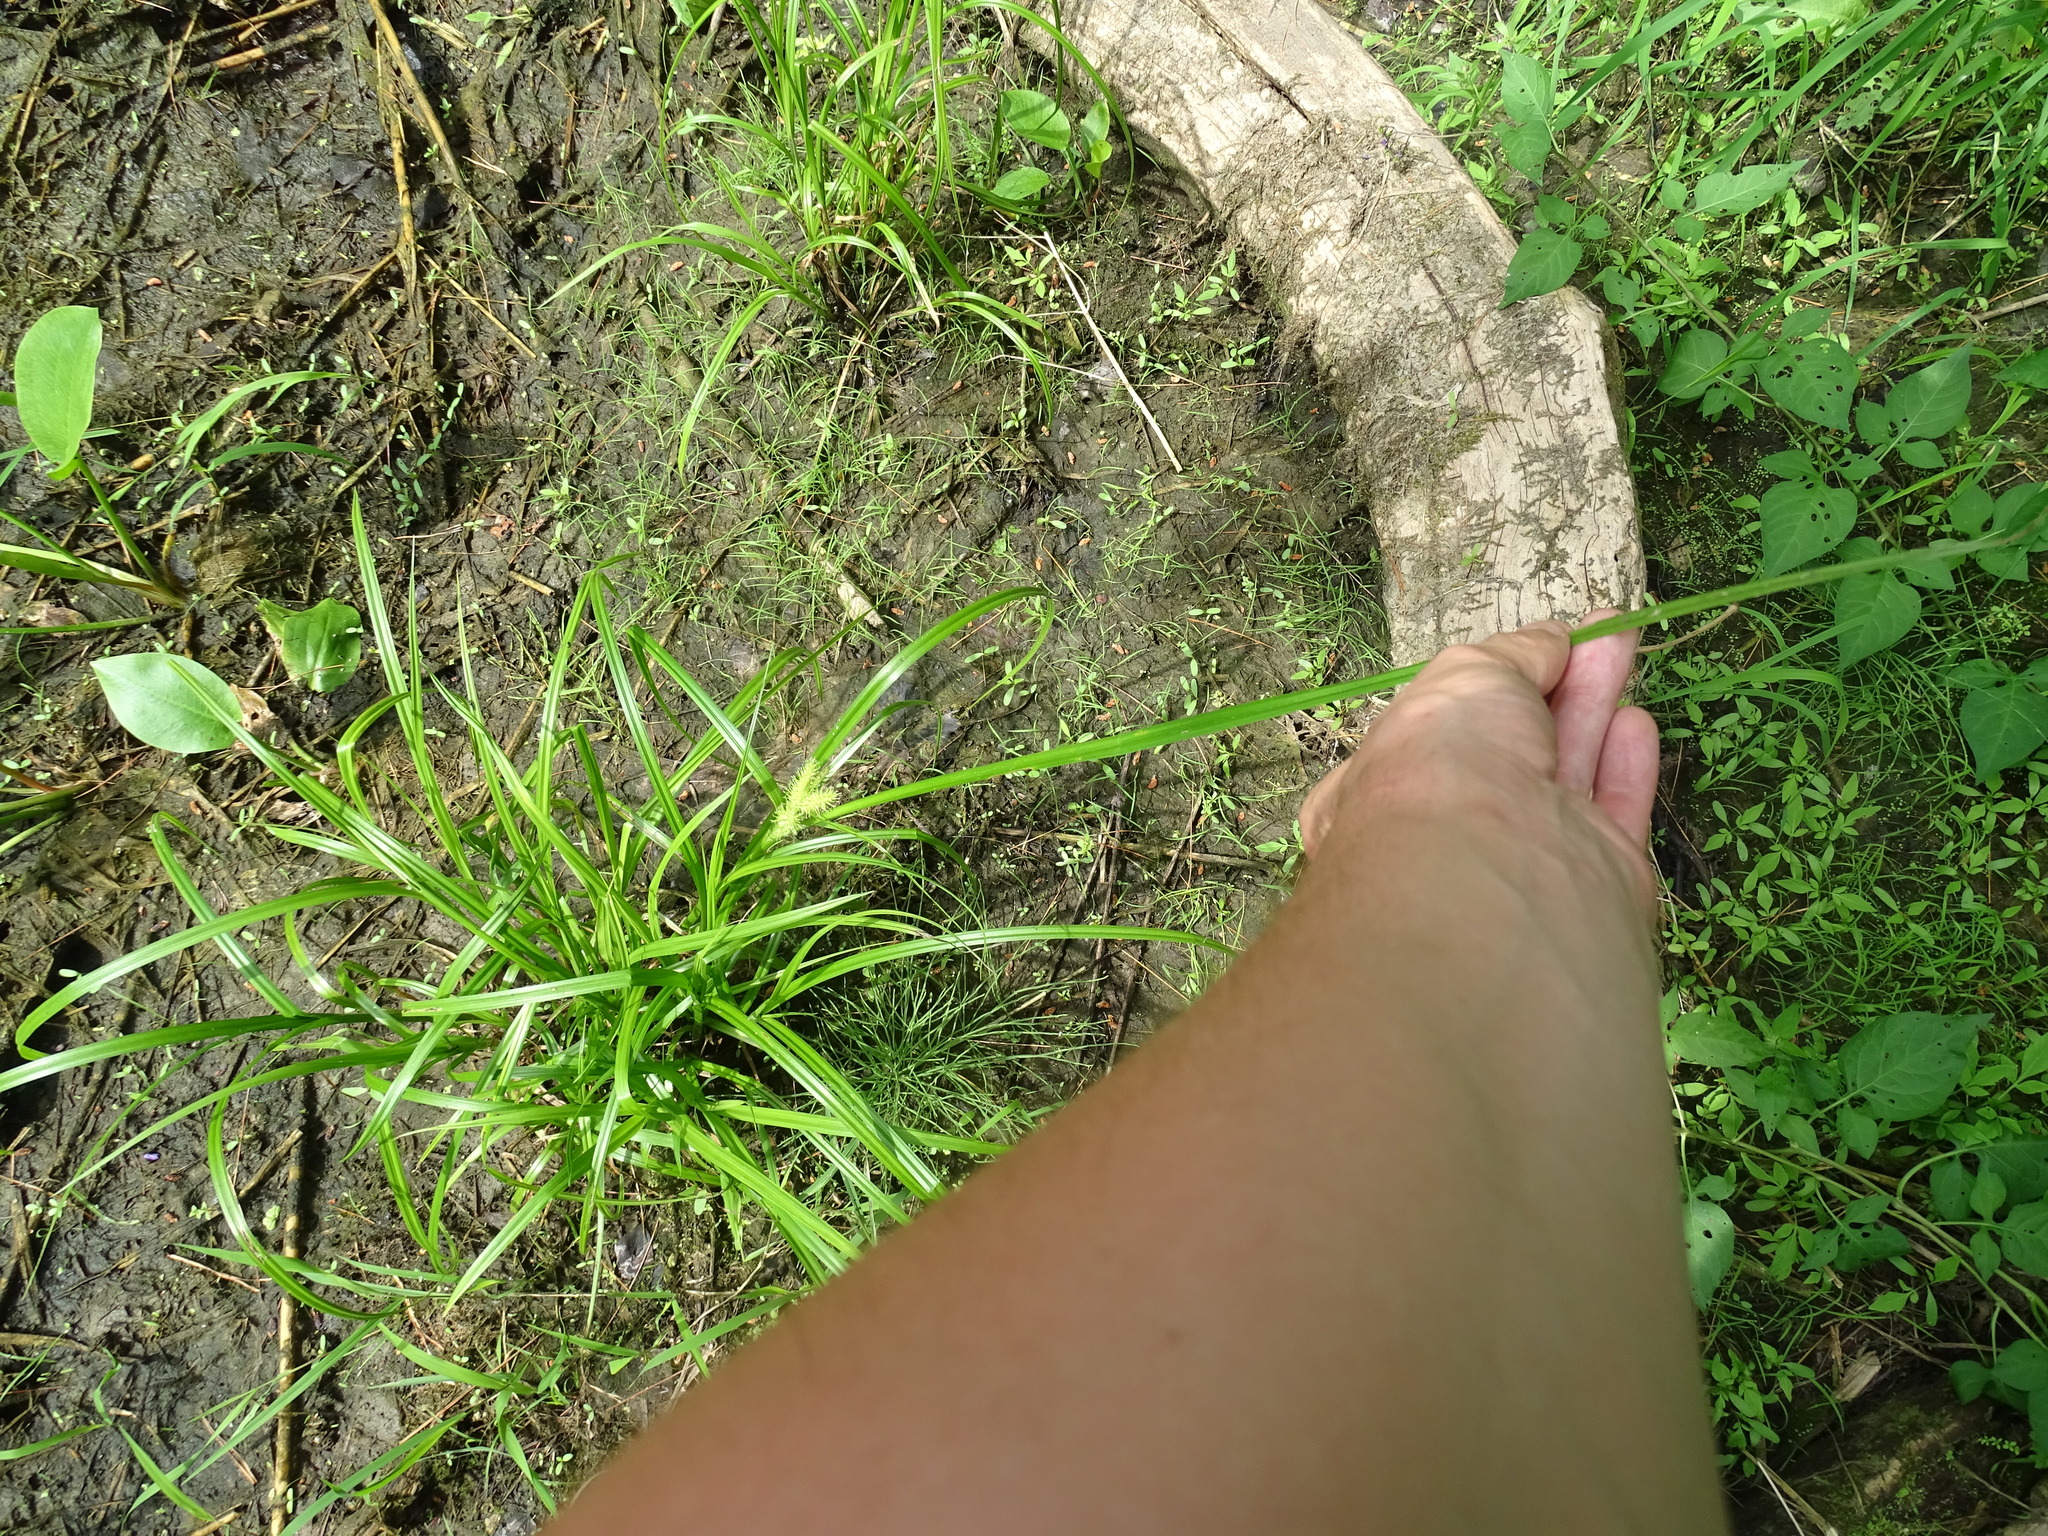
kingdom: Plantae
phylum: Tracheophyta
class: Liliopsida
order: Poales
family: Cyperaceae
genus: Carex
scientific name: Carex retrorsa
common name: Knot-sheath sedge
